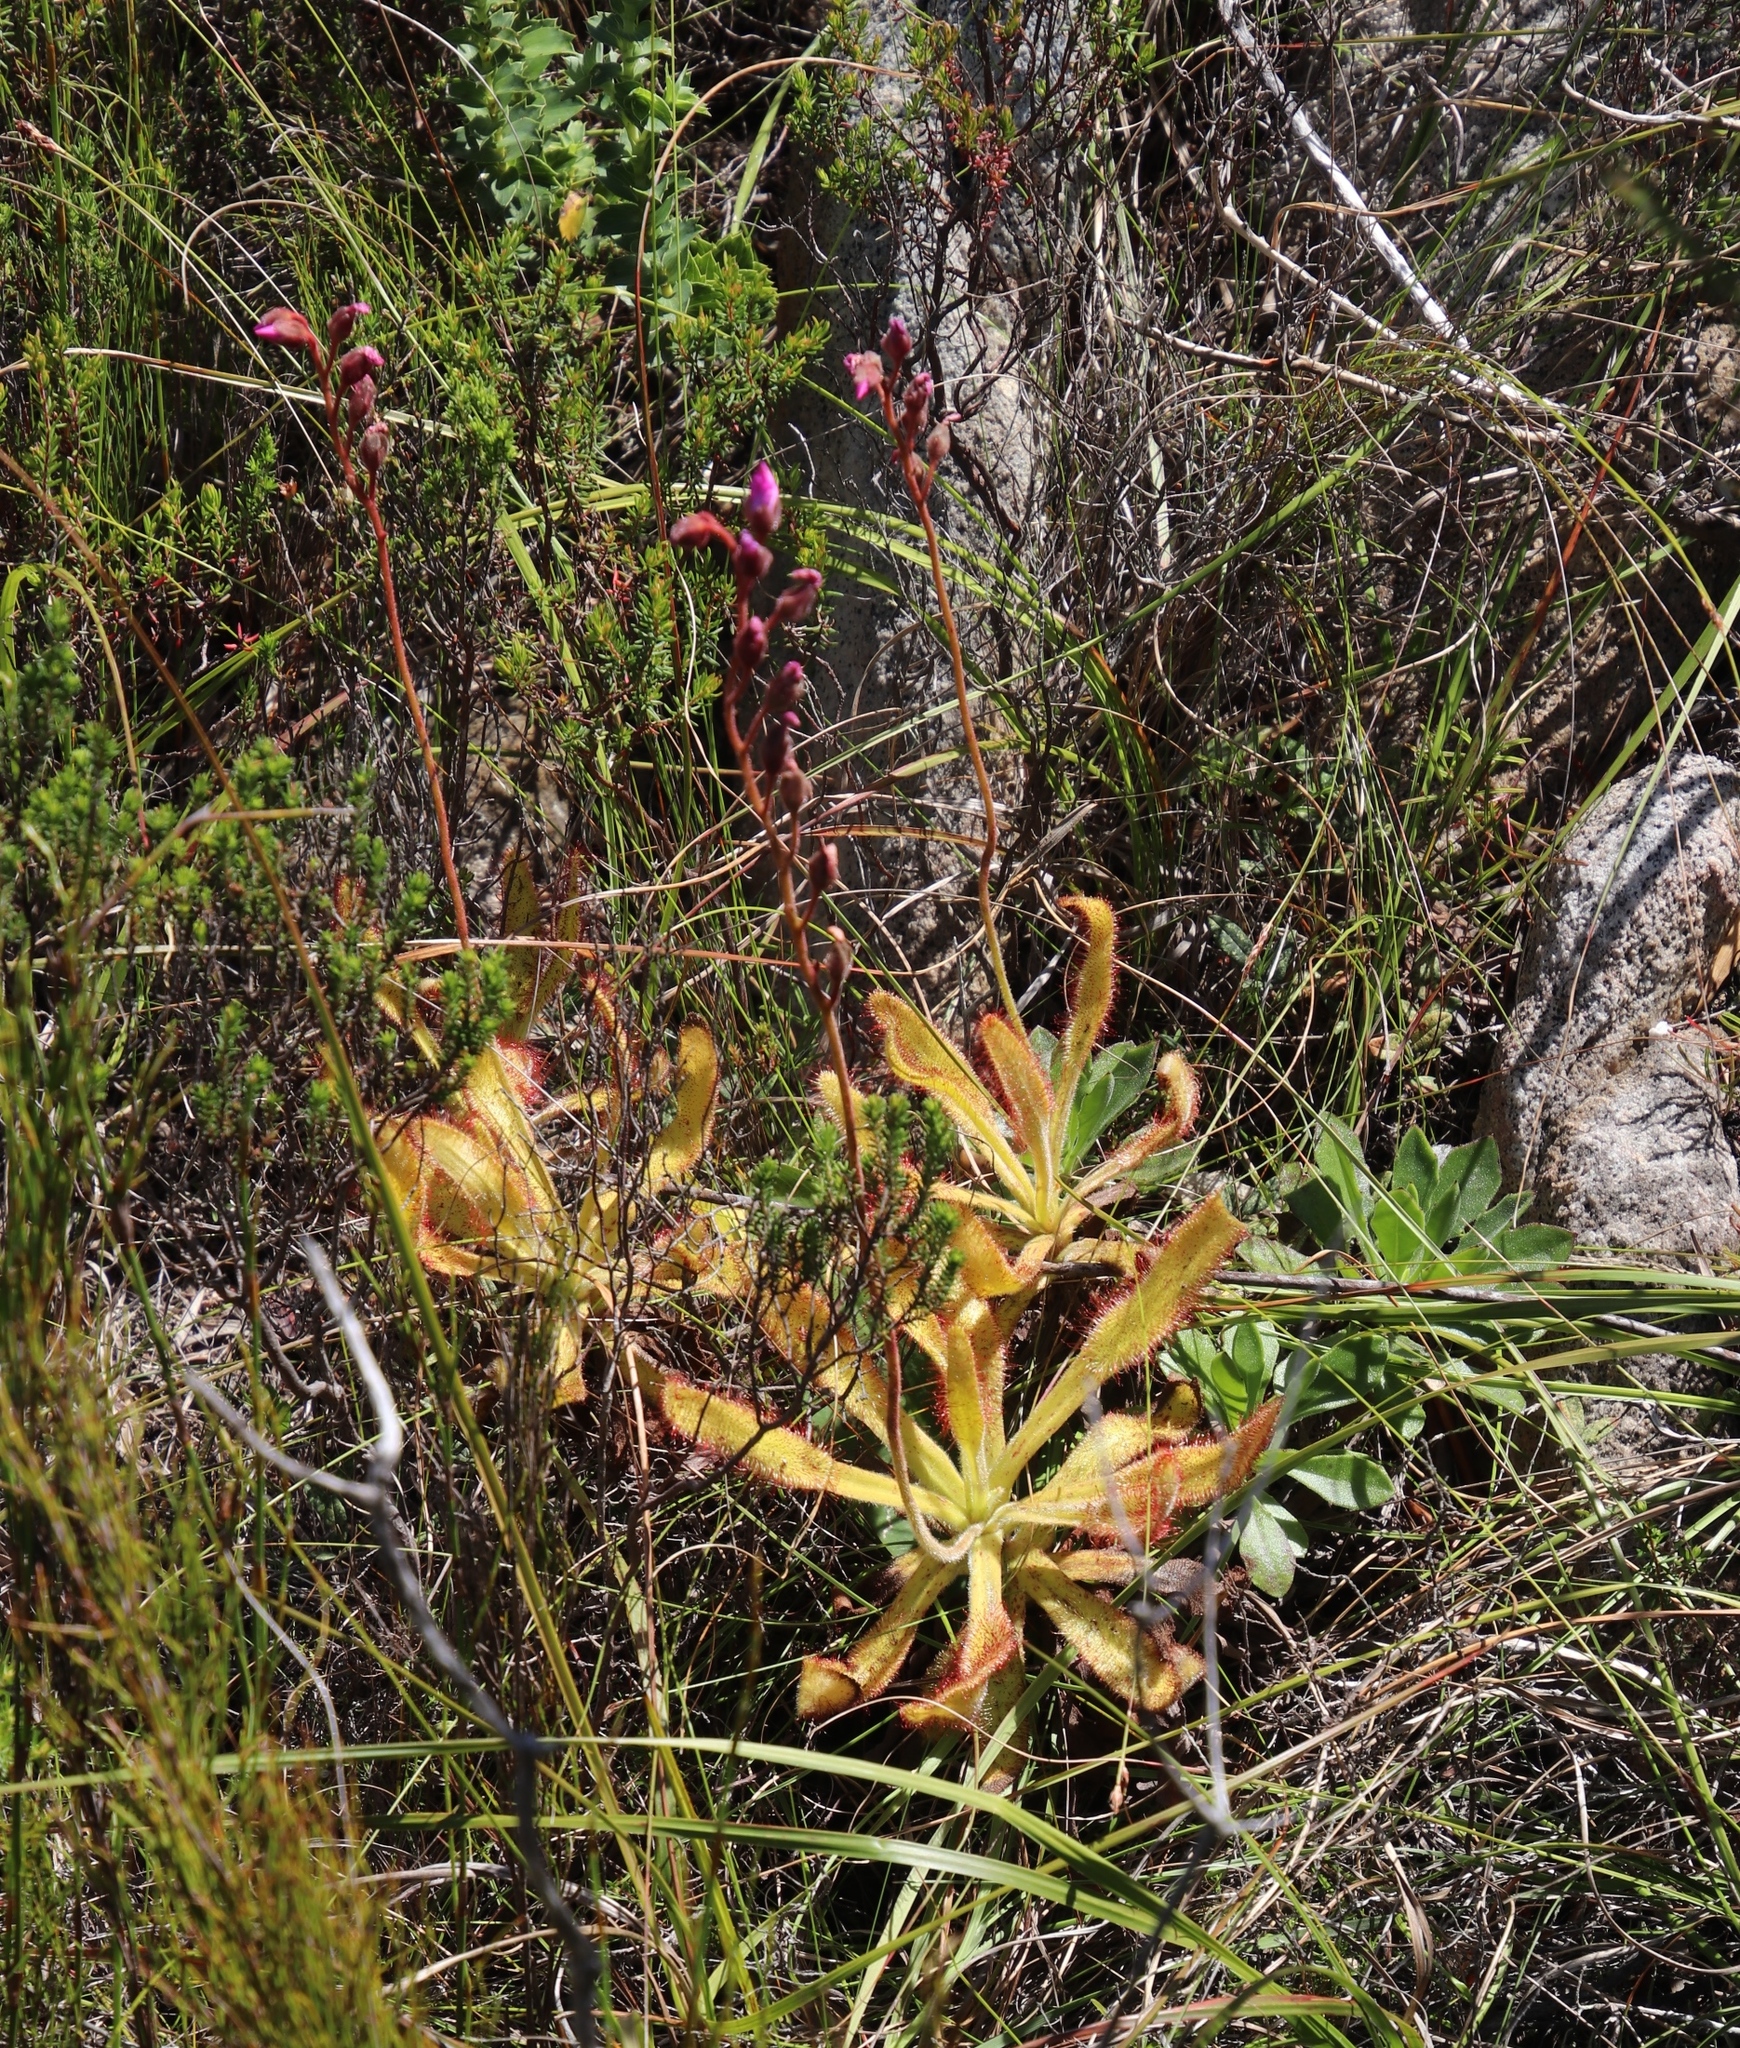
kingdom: Plantae
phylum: Tracheophyta
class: Magnoliopsida
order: Caryophyllales
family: Droseraceae
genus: Drosera
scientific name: Drosera hilaris
